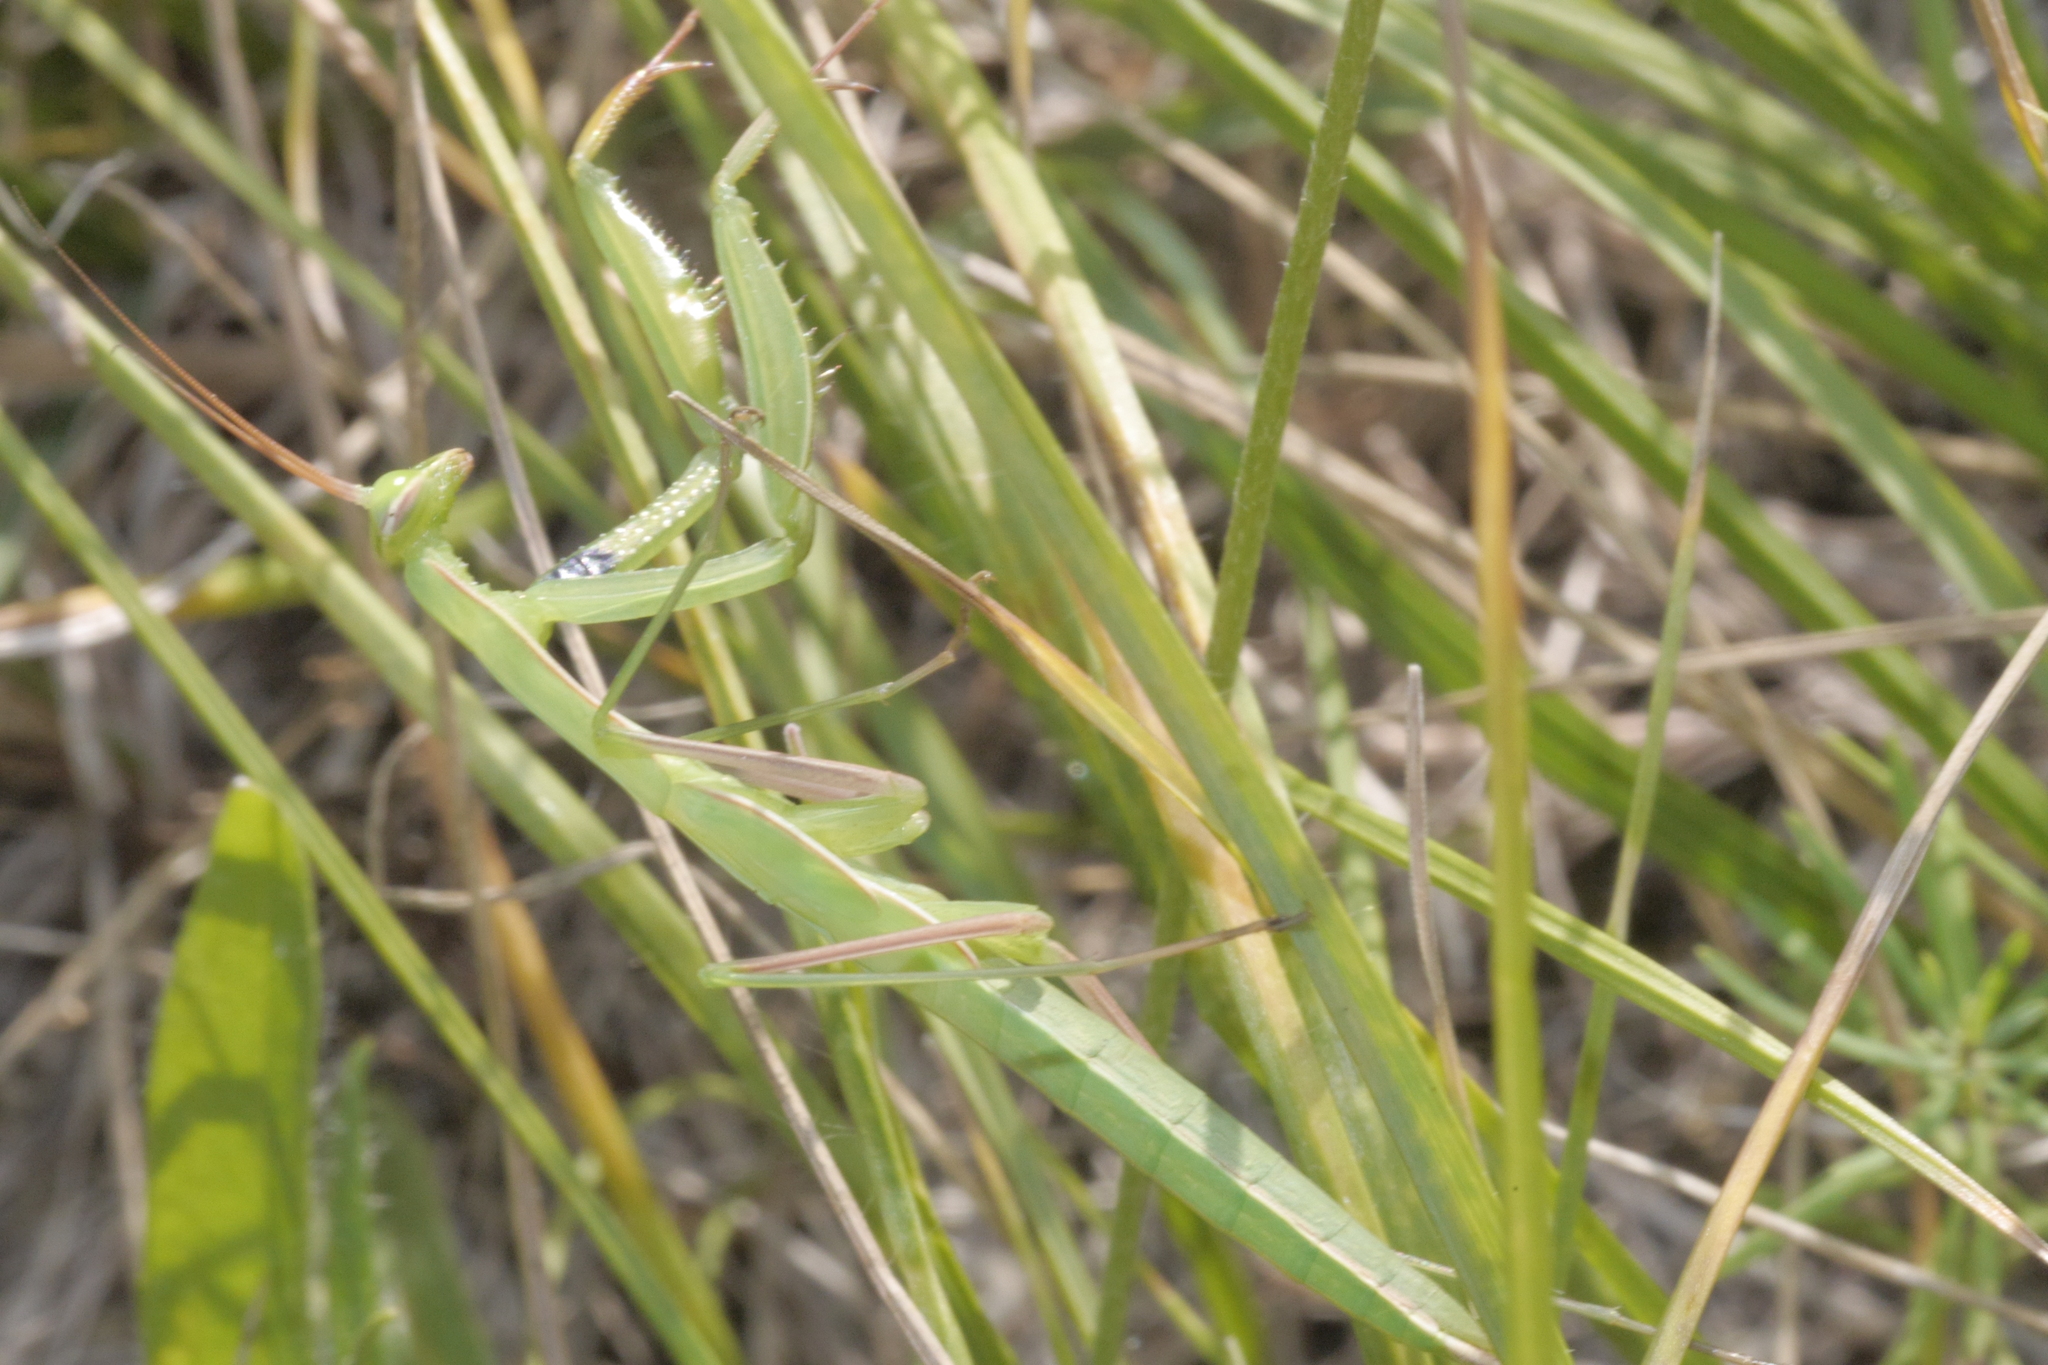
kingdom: Animalia
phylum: Arthropoda
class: Insecta
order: Mantodea
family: Mantidae
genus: Mantis
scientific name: Mantis religiosa
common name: Praying mantis
